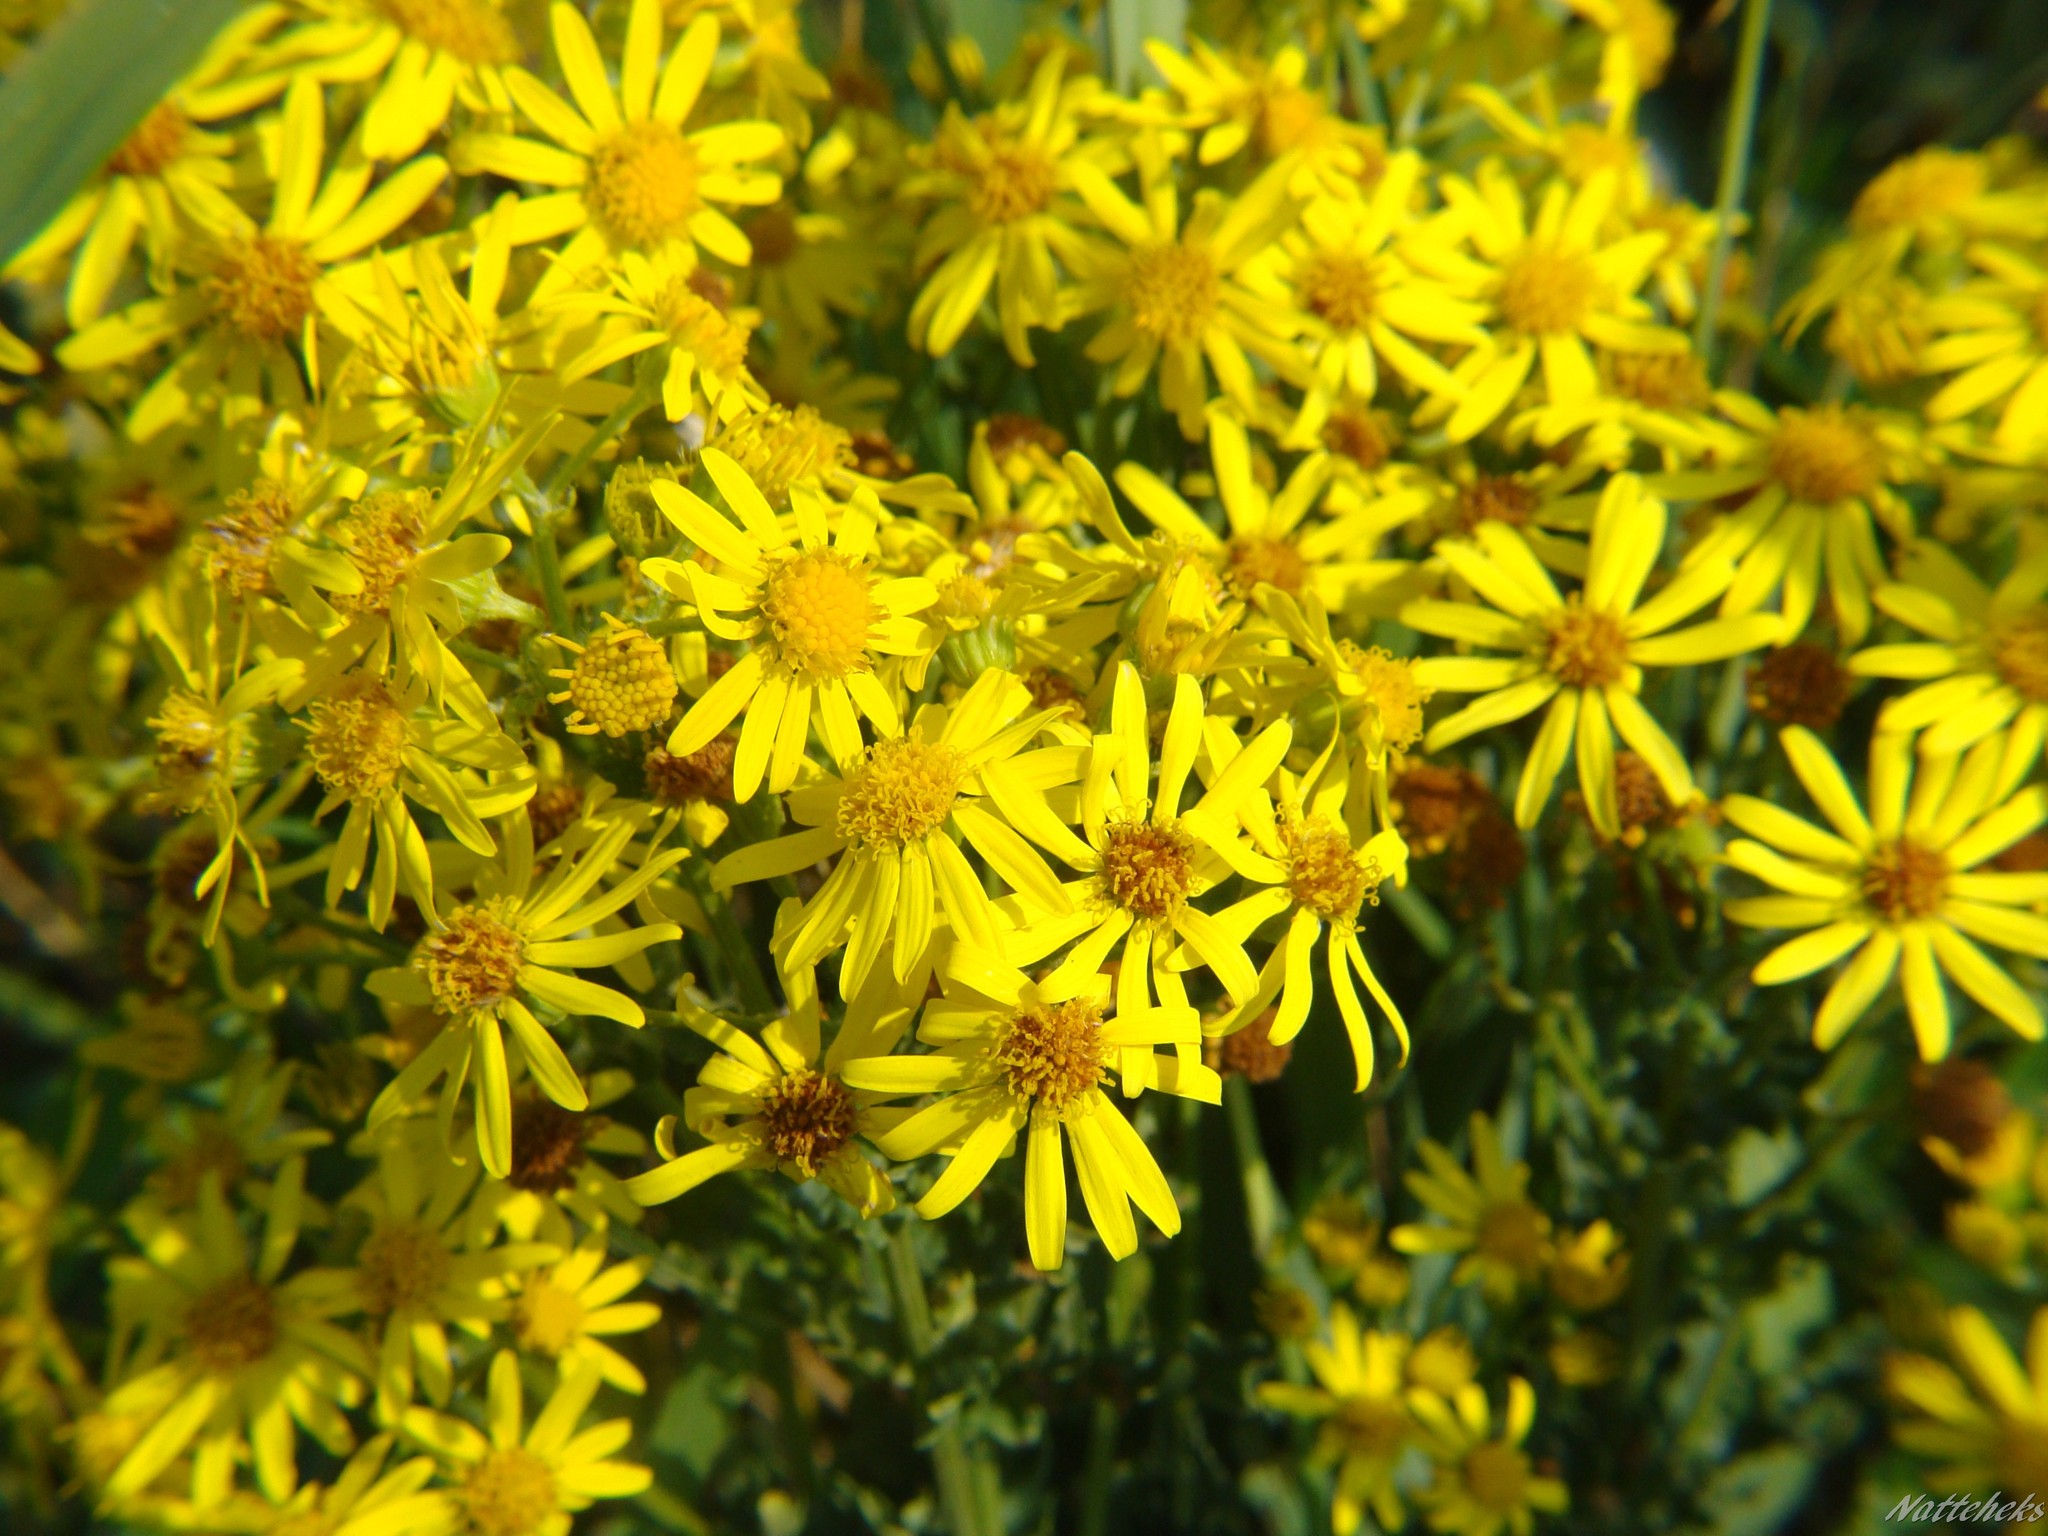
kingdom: Plantae
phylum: Tracheophyta
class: Magnoliopsida
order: Asterales
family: Asteraceae
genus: Jacobaea
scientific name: Jacobaea vulgaris
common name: Stinking willie
